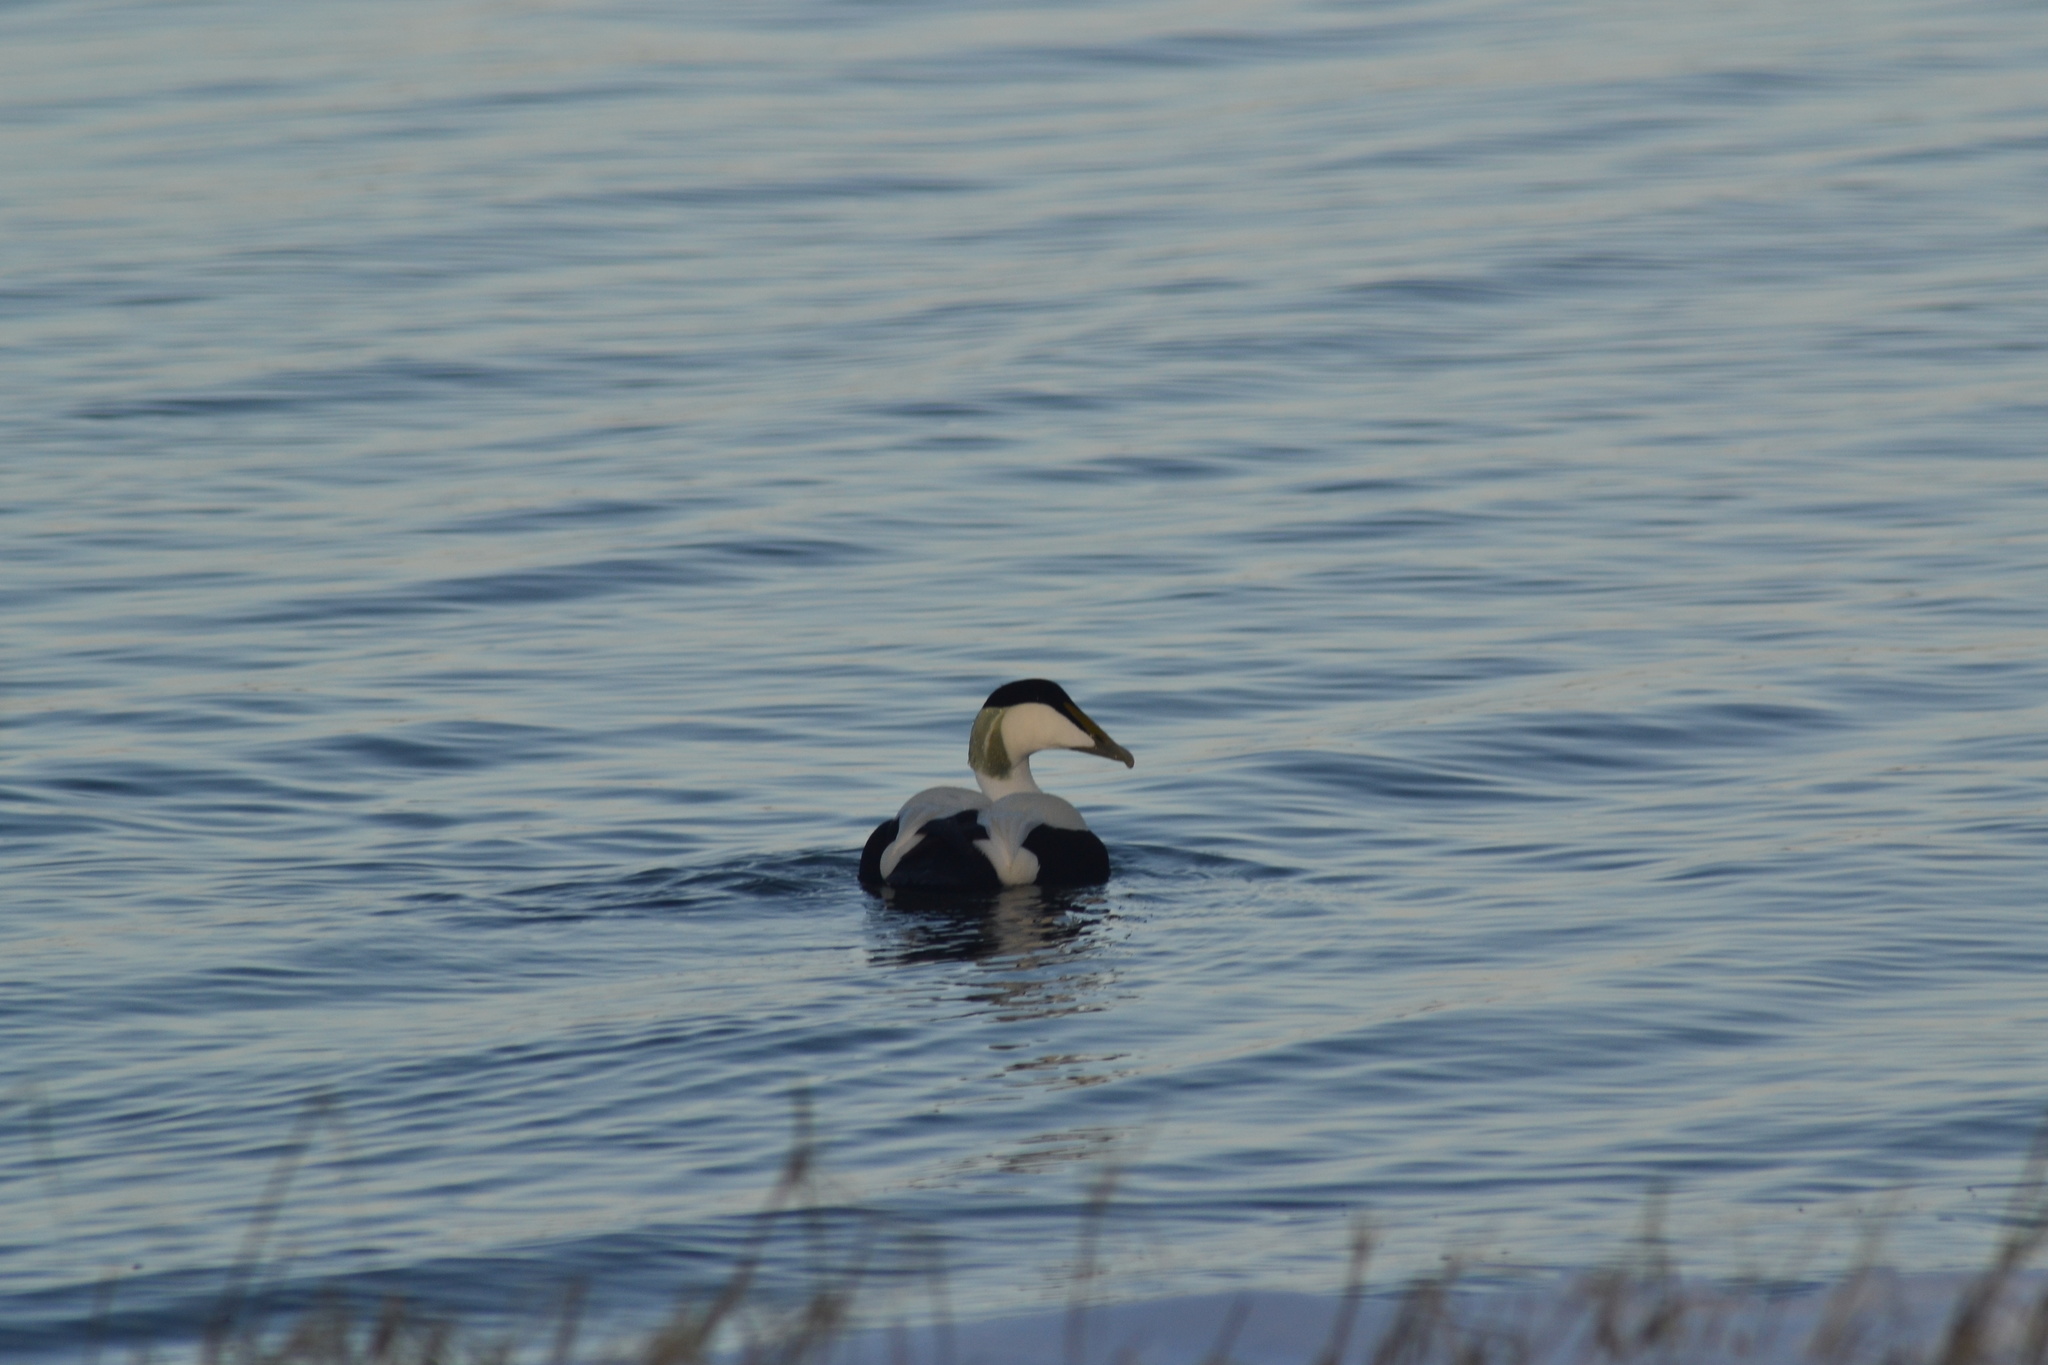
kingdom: Animalia
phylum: Chordata
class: Aves
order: Anseriformes
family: Anatidae
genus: Somateria
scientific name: Somateria mollissima
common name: Common eider
